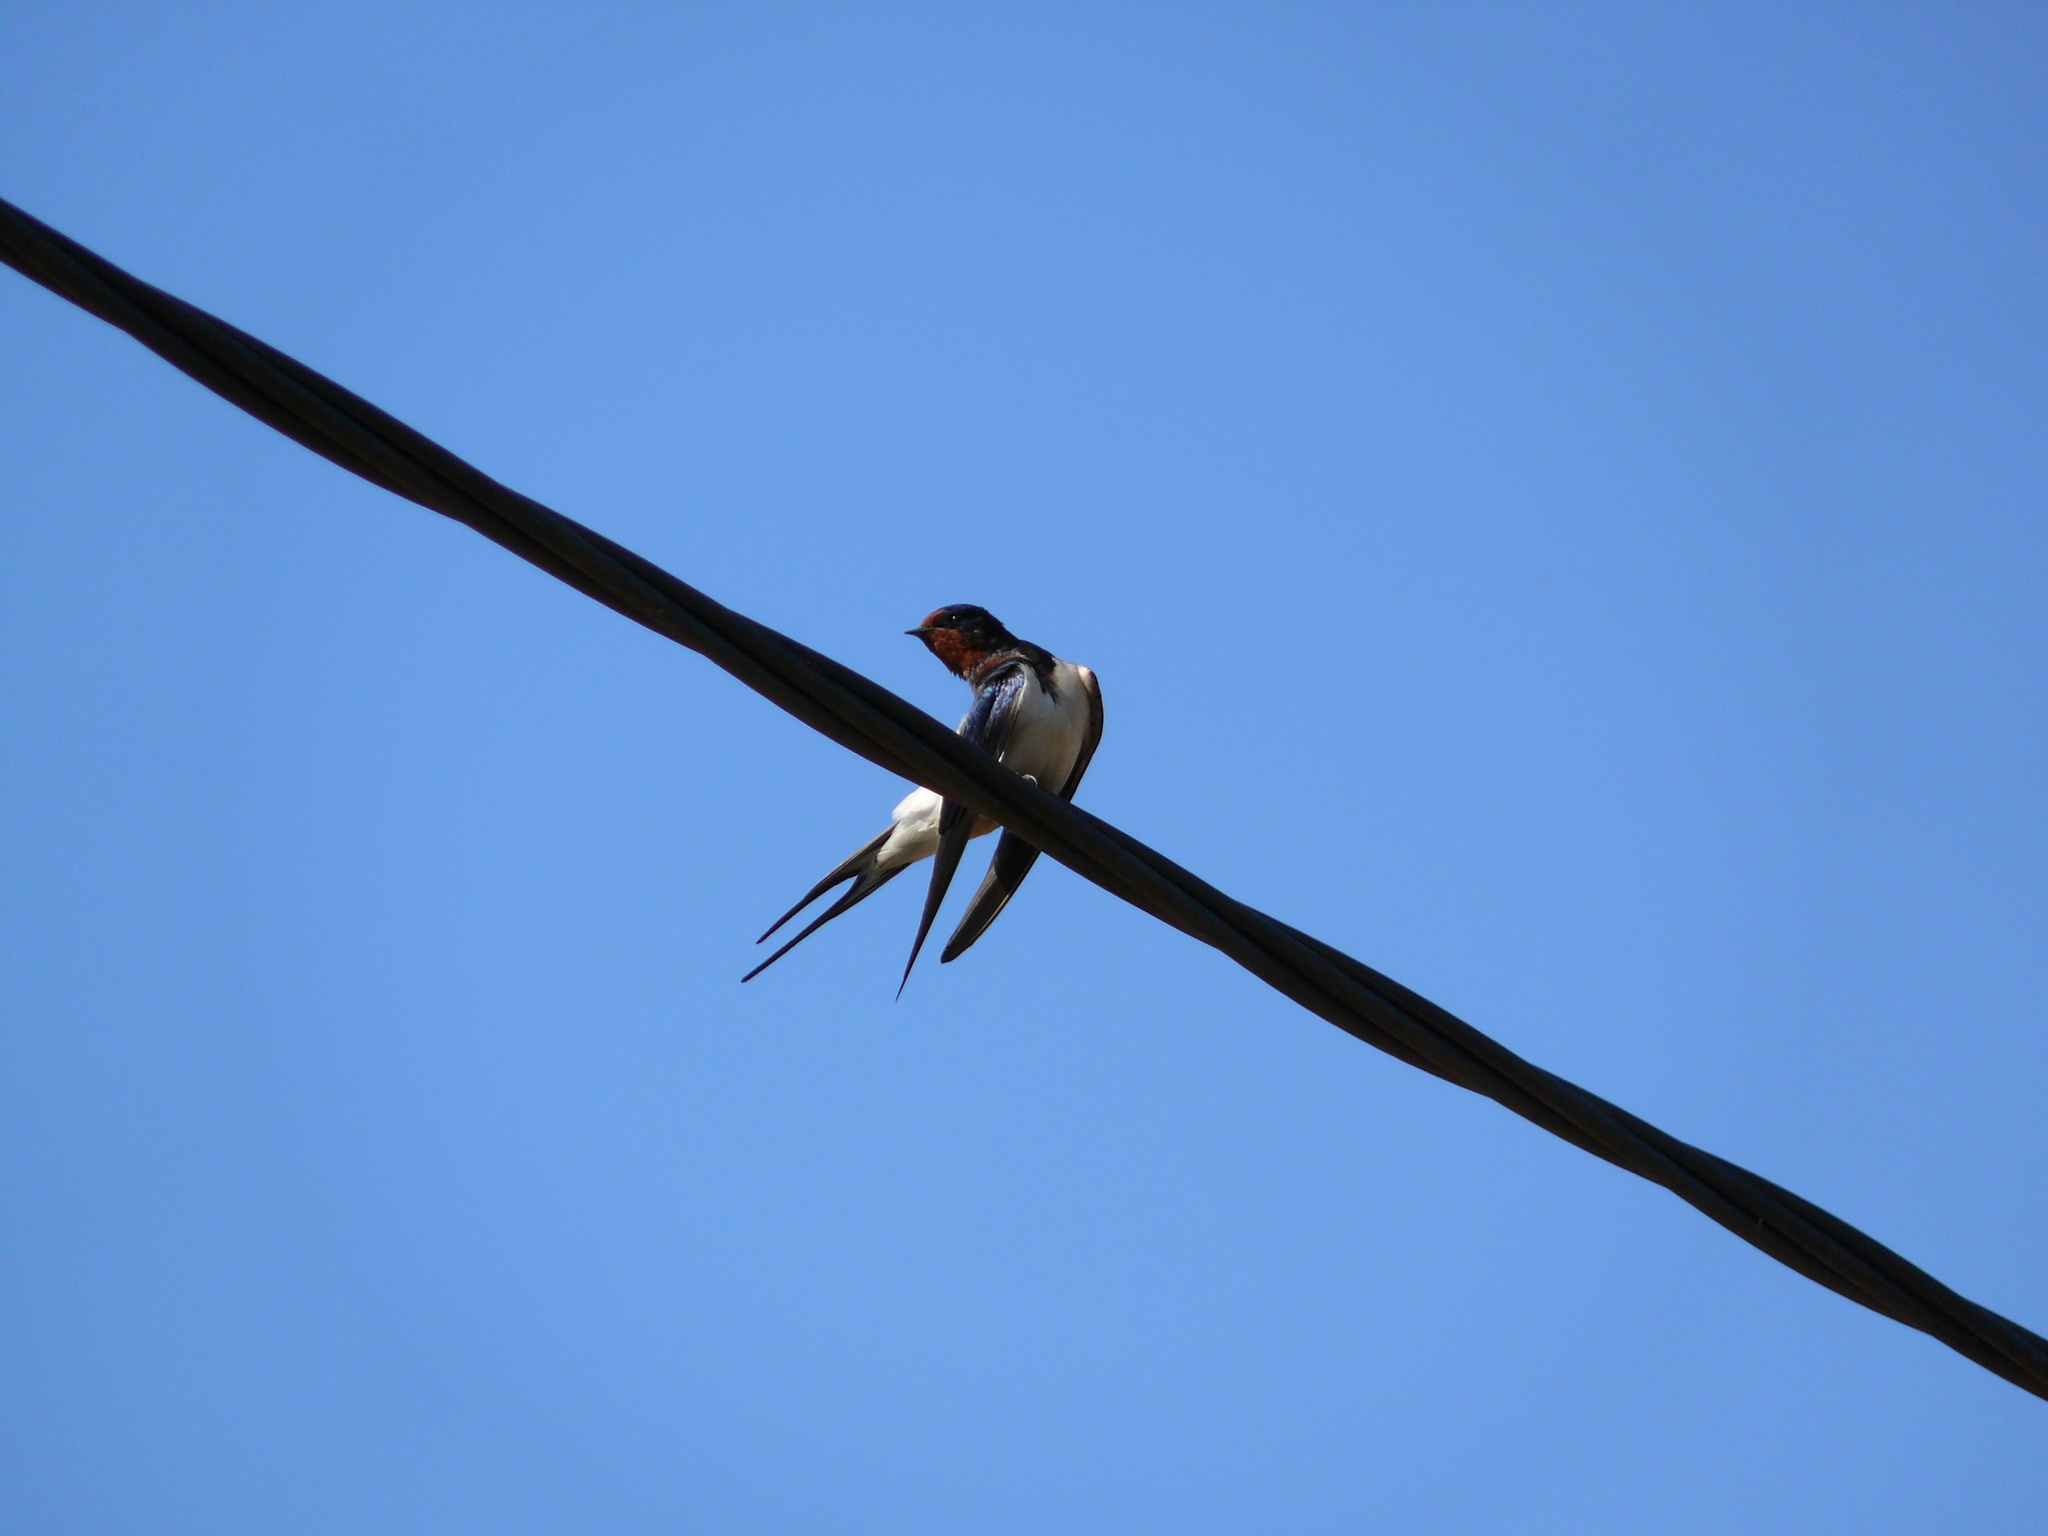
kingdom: Animalia
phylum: Chordata
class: Aves
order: Passeriformes
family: Hirundinidae
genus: Hirundo
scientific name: Hirundo rustica
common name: Barn swallow
